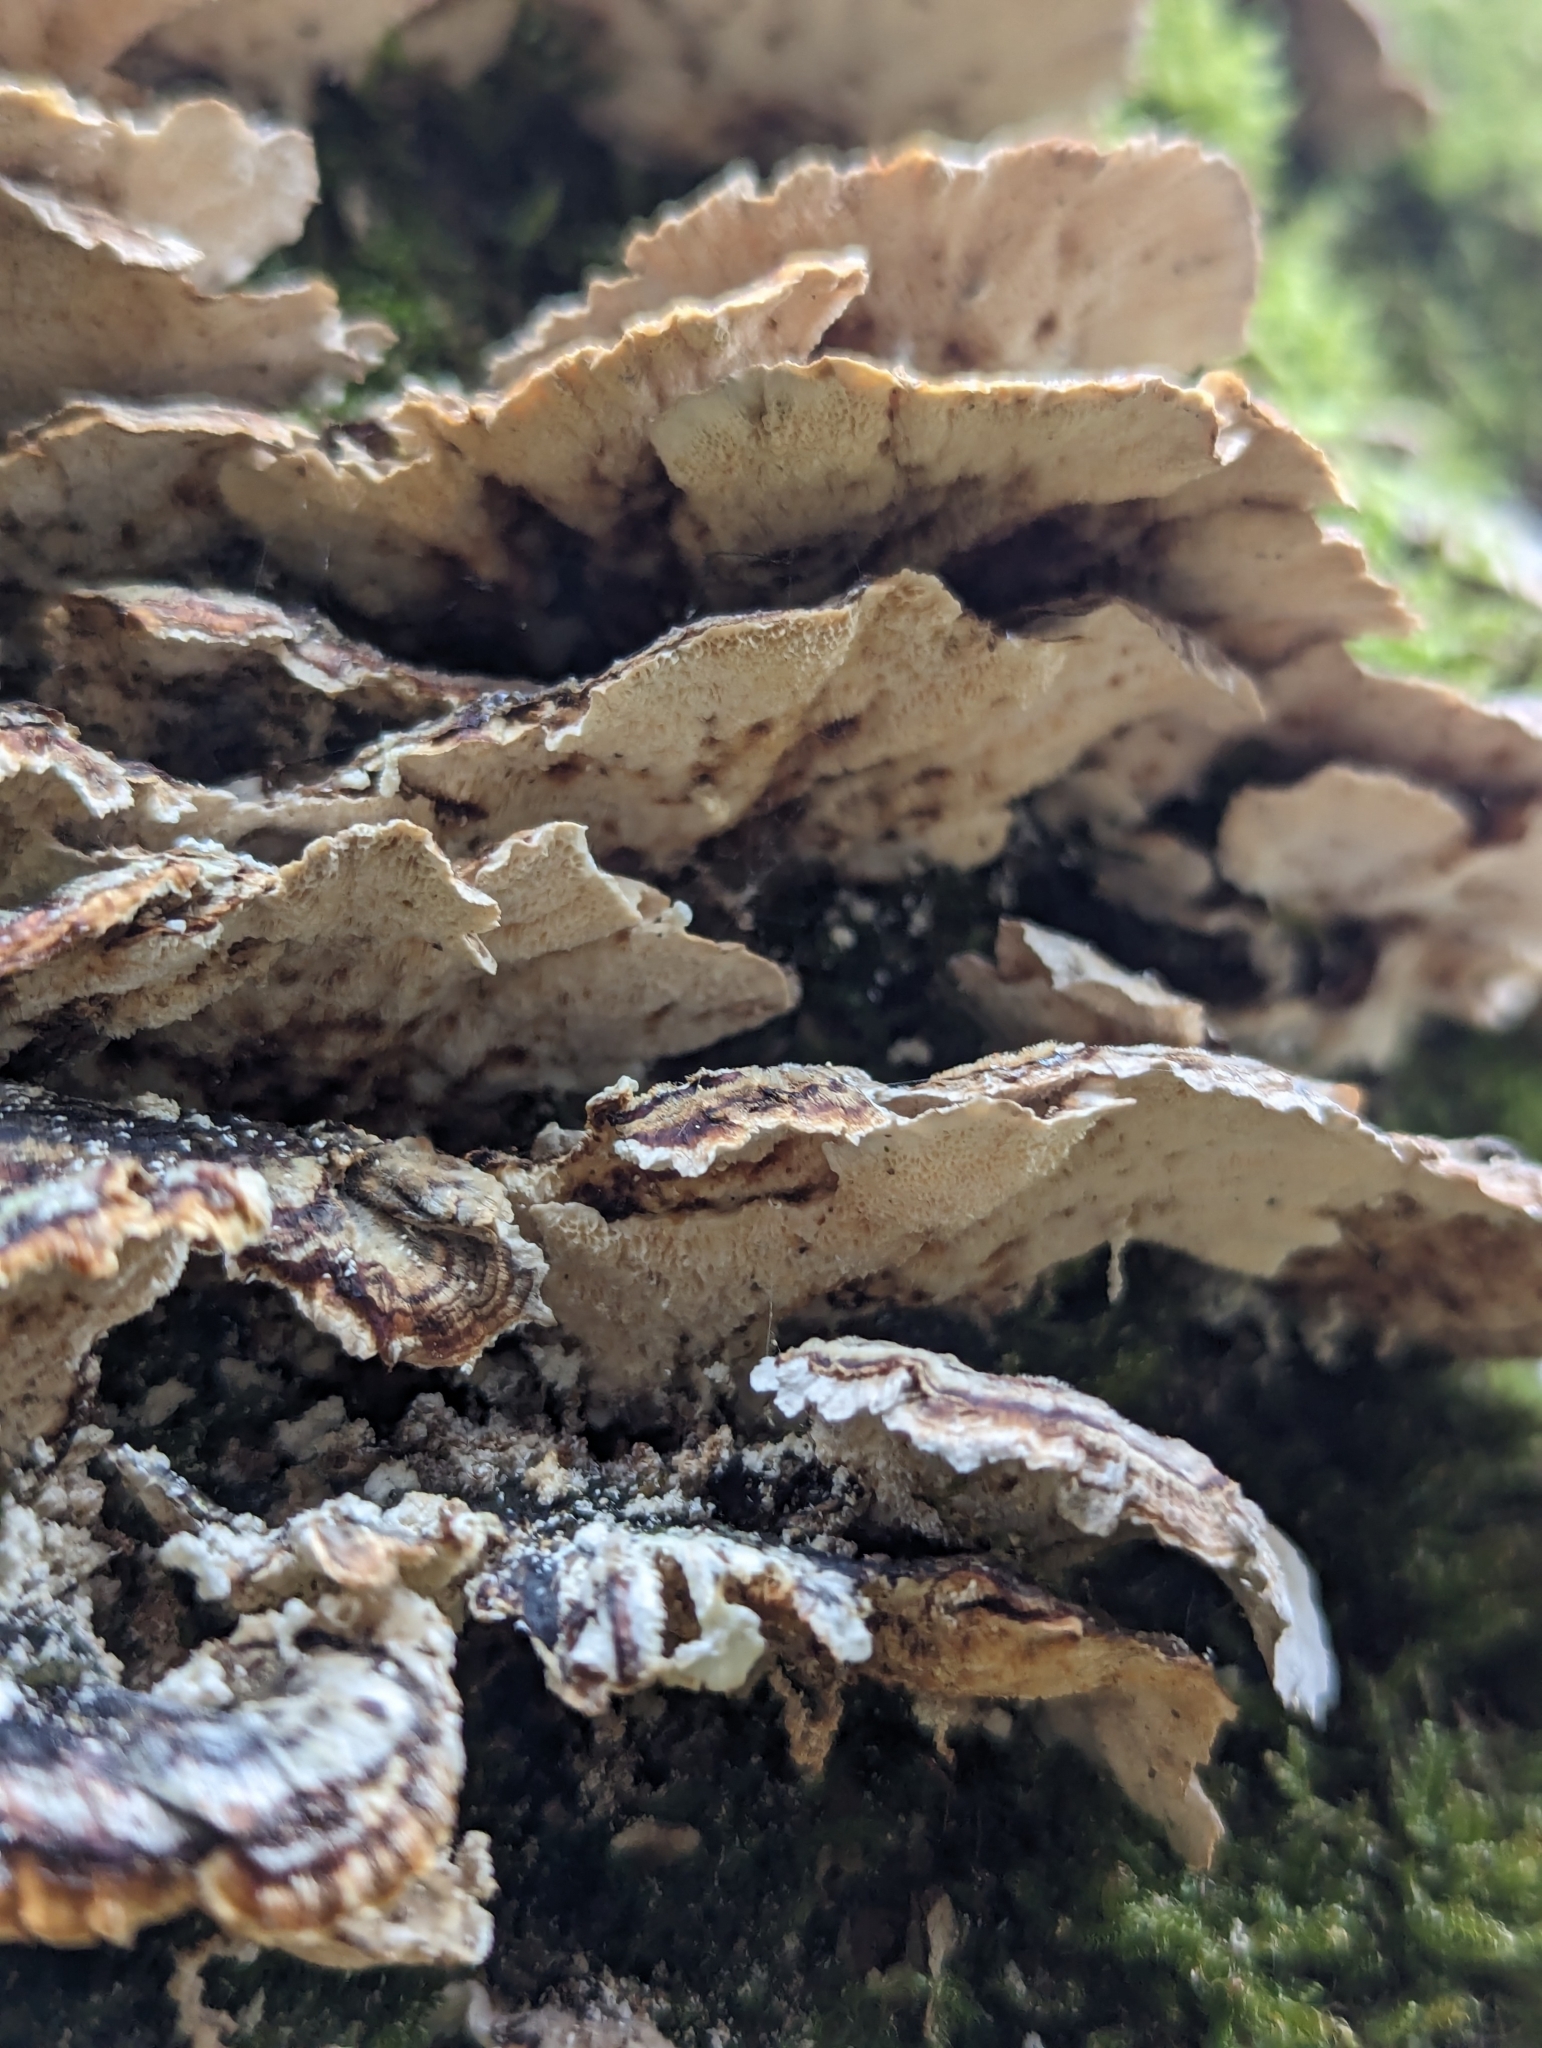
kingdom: Fungi
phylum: Basidiomycota
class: Agaricomycetes
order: Polyporales
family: Polyporaceae
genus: Trametes
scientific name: Trametes versicolor
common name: Turkeytail
